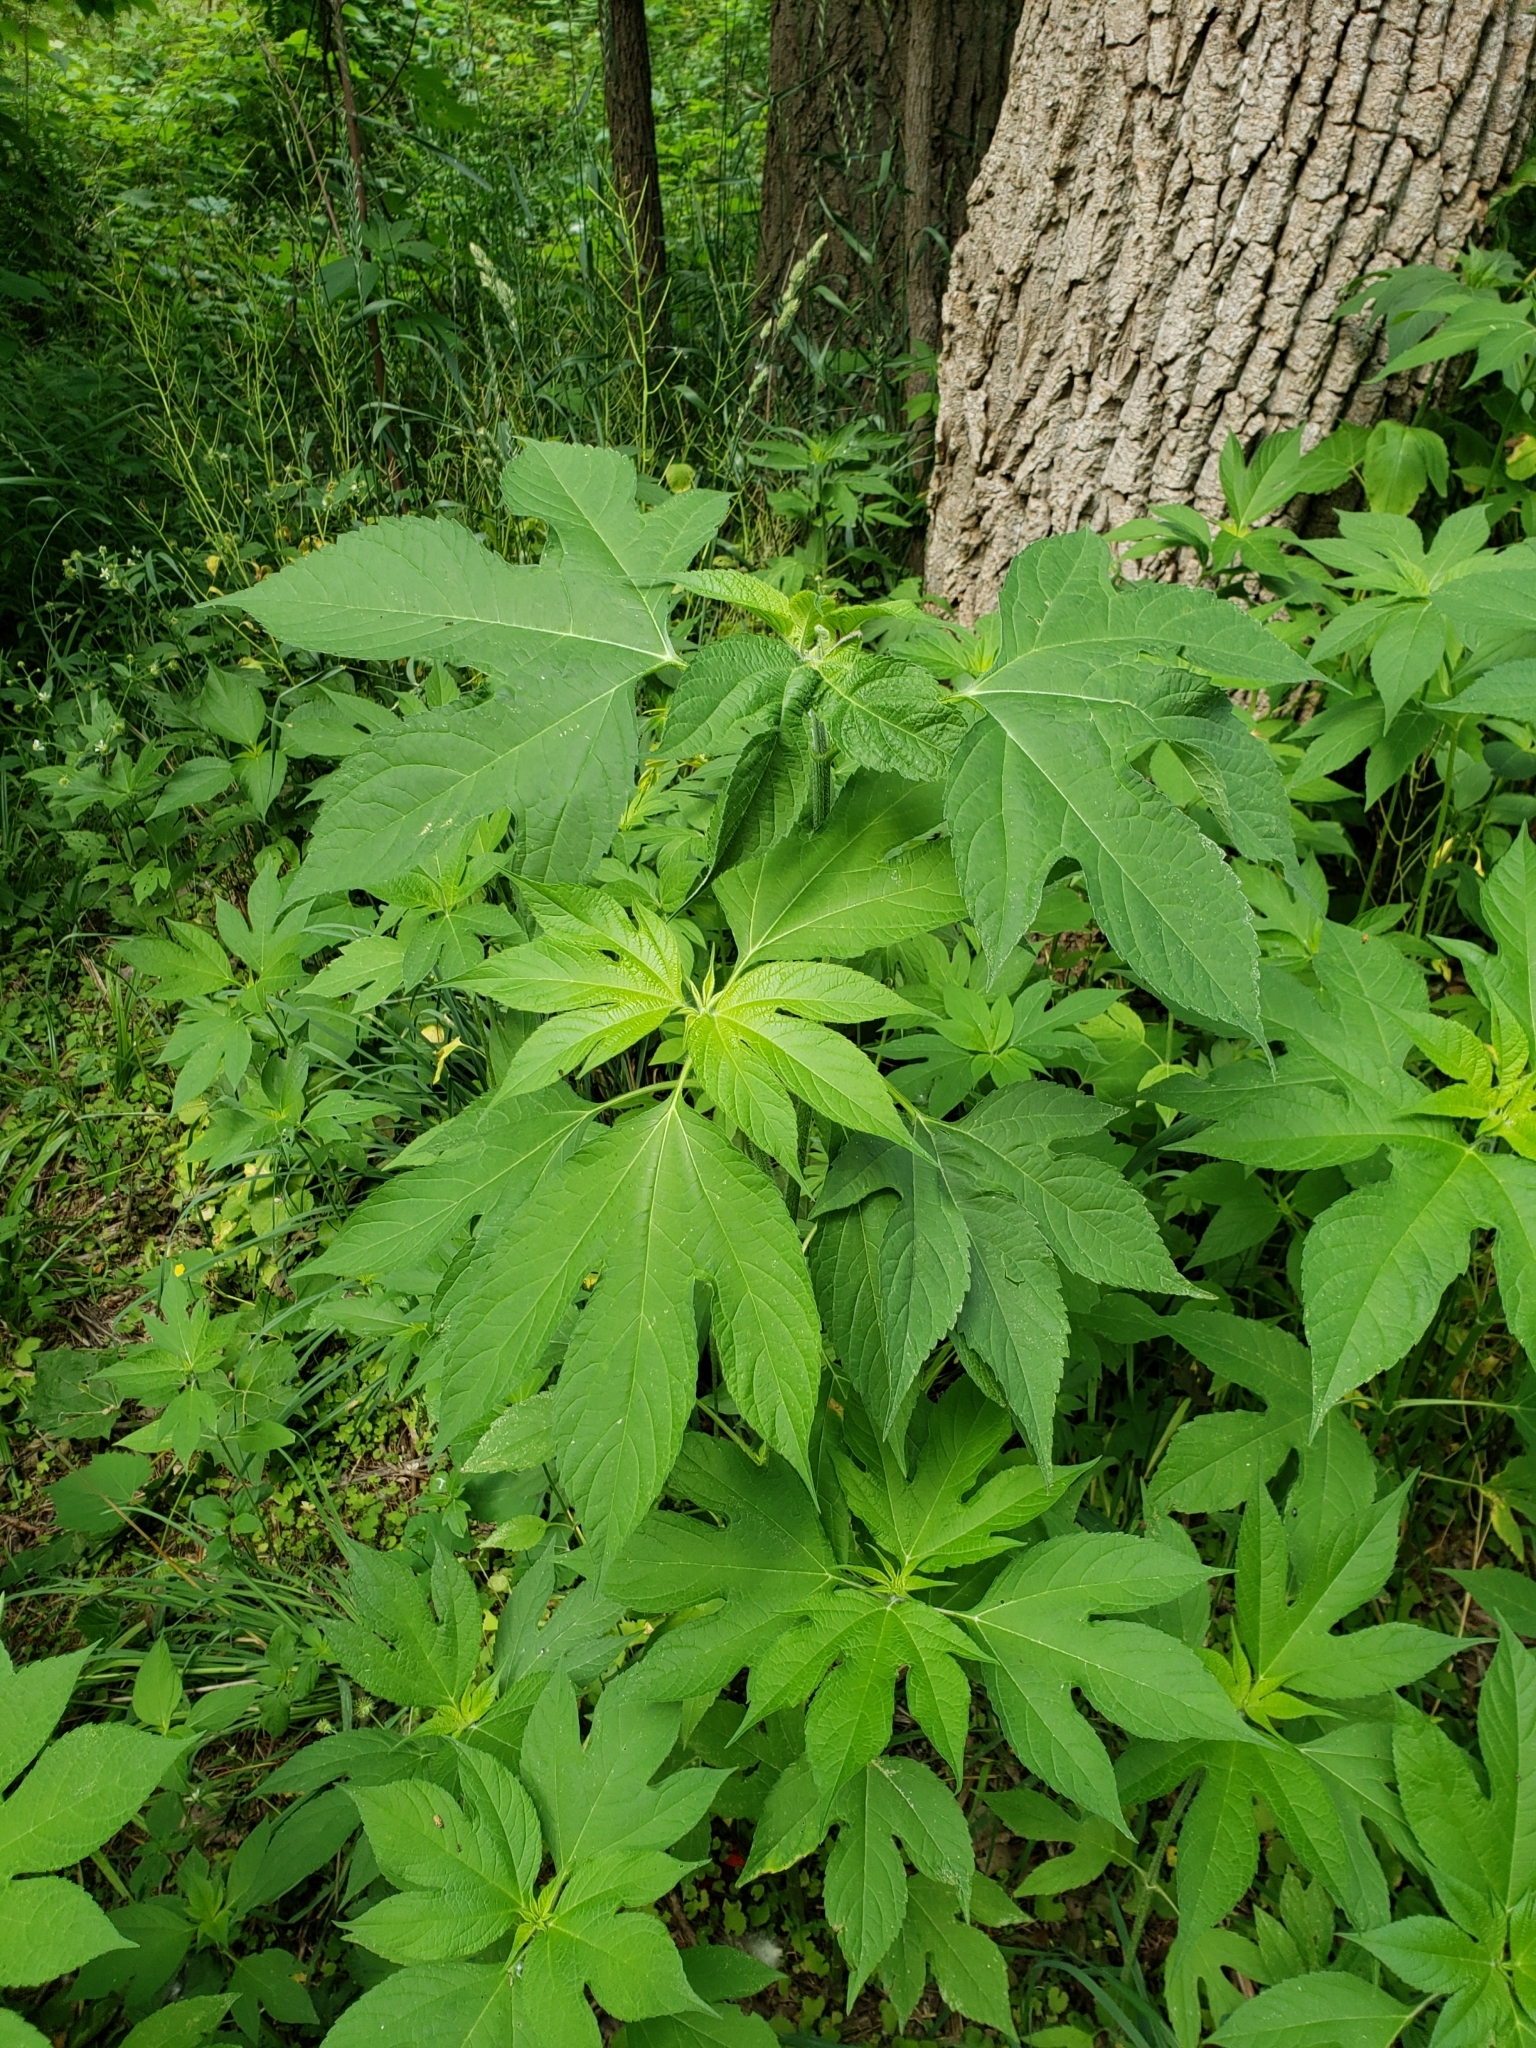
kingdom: Plantae
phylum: Tracheophyta
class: Magnoliopsida
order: Asterales
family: Asteraceae
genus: Ambrosia
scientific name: Ambrosia trifida
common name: Giant ragweed
